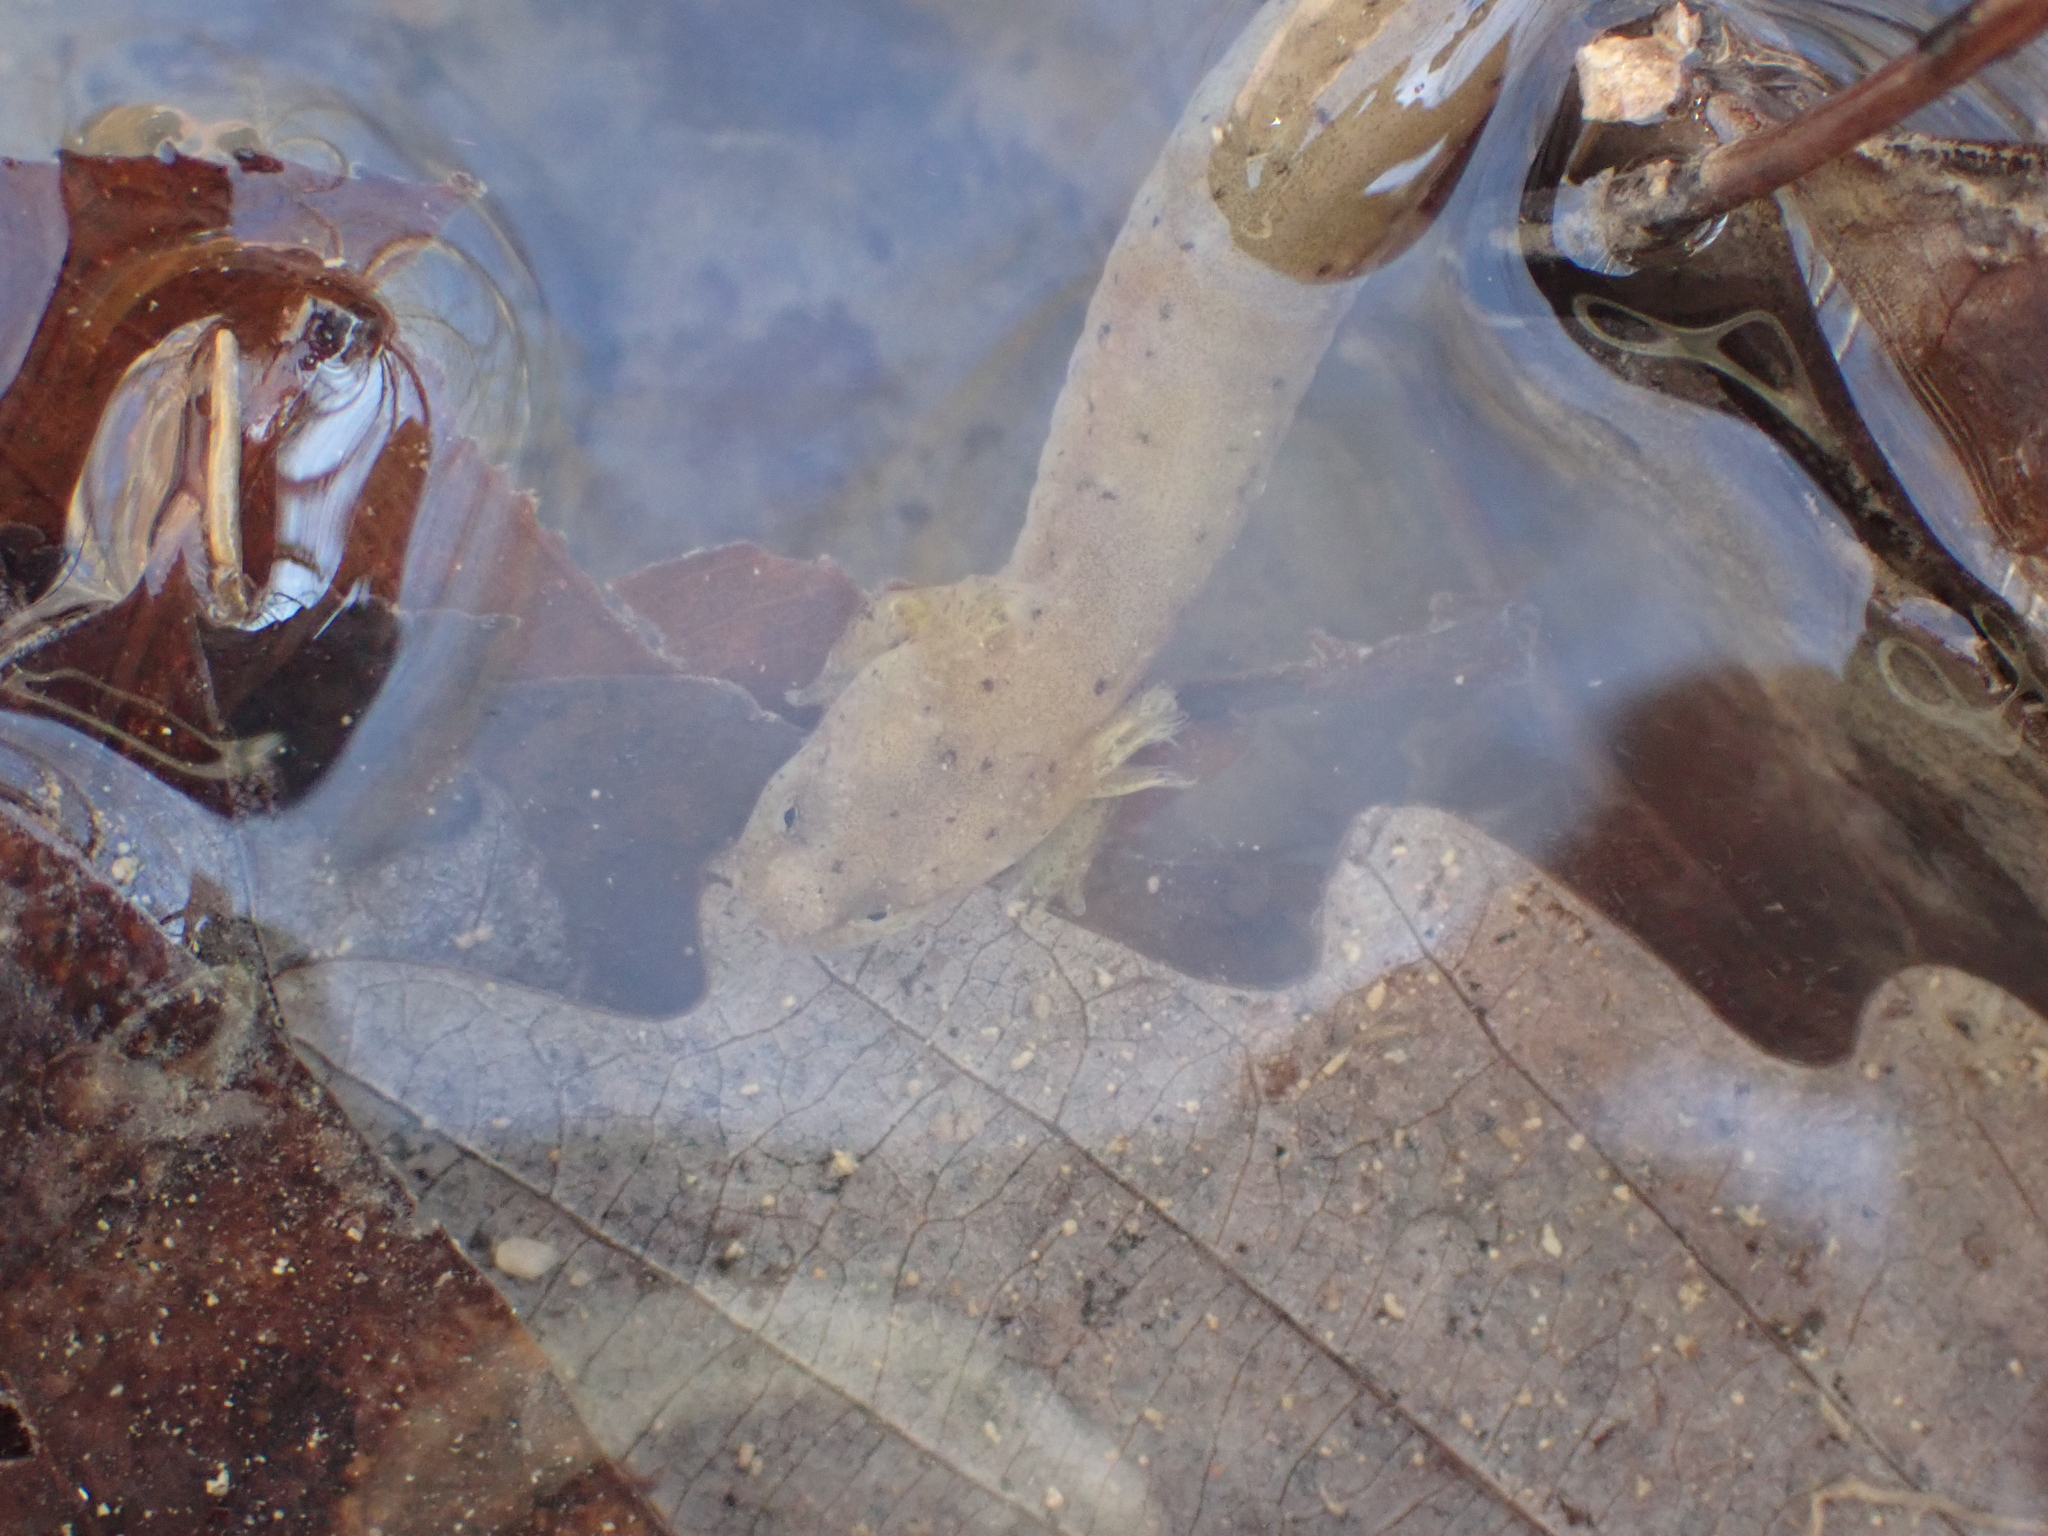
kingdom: Animalia
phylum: Chordata
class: Amphibia
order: Caudata
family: Plethodontidae
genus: Pseudotriton
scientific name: Pseudotriton diastictus
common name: Midland mud salamander
